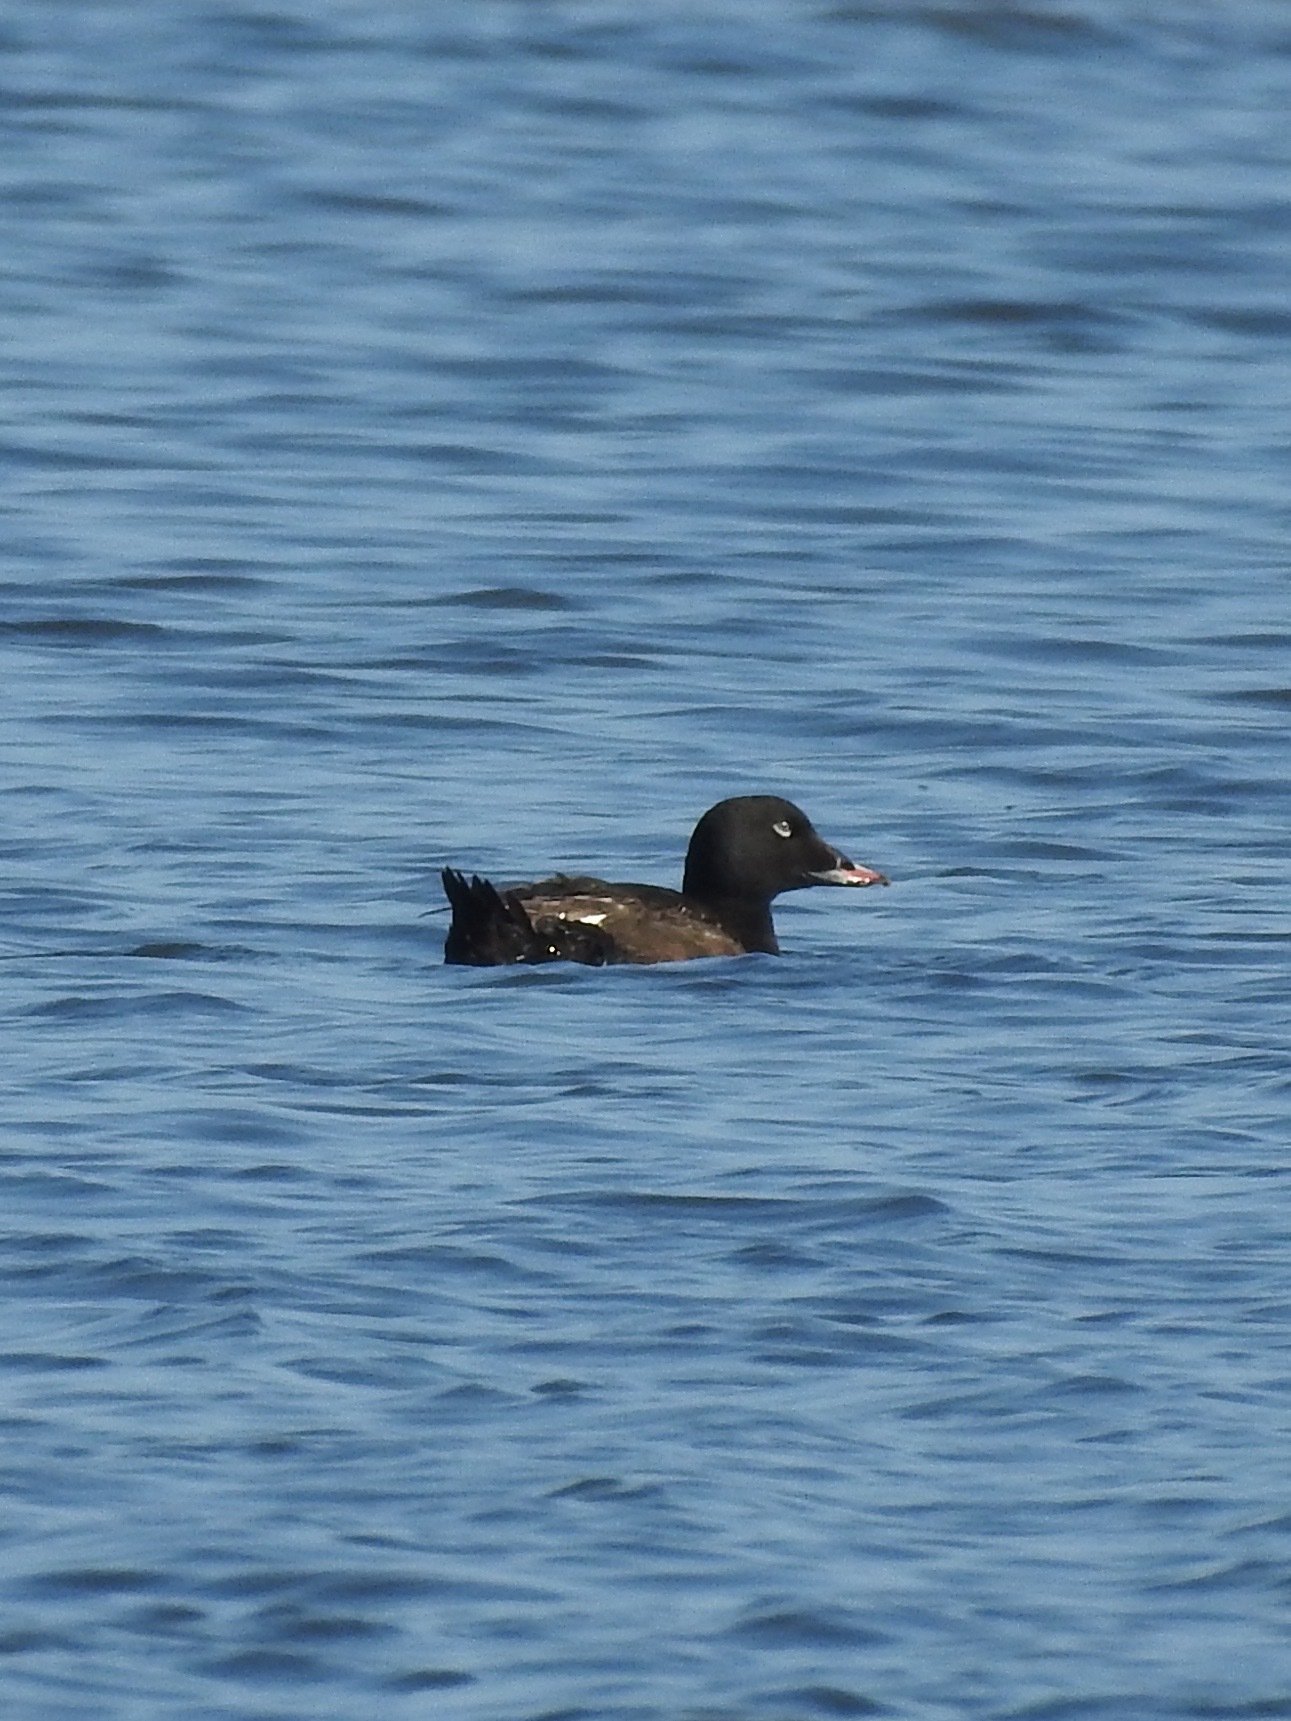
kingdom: Animalia
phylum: Chordata
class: Aves
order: Anseriformes
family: Anatidae
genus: Melanitta
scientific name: Melanitta deglandi
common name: White-winged scoter
